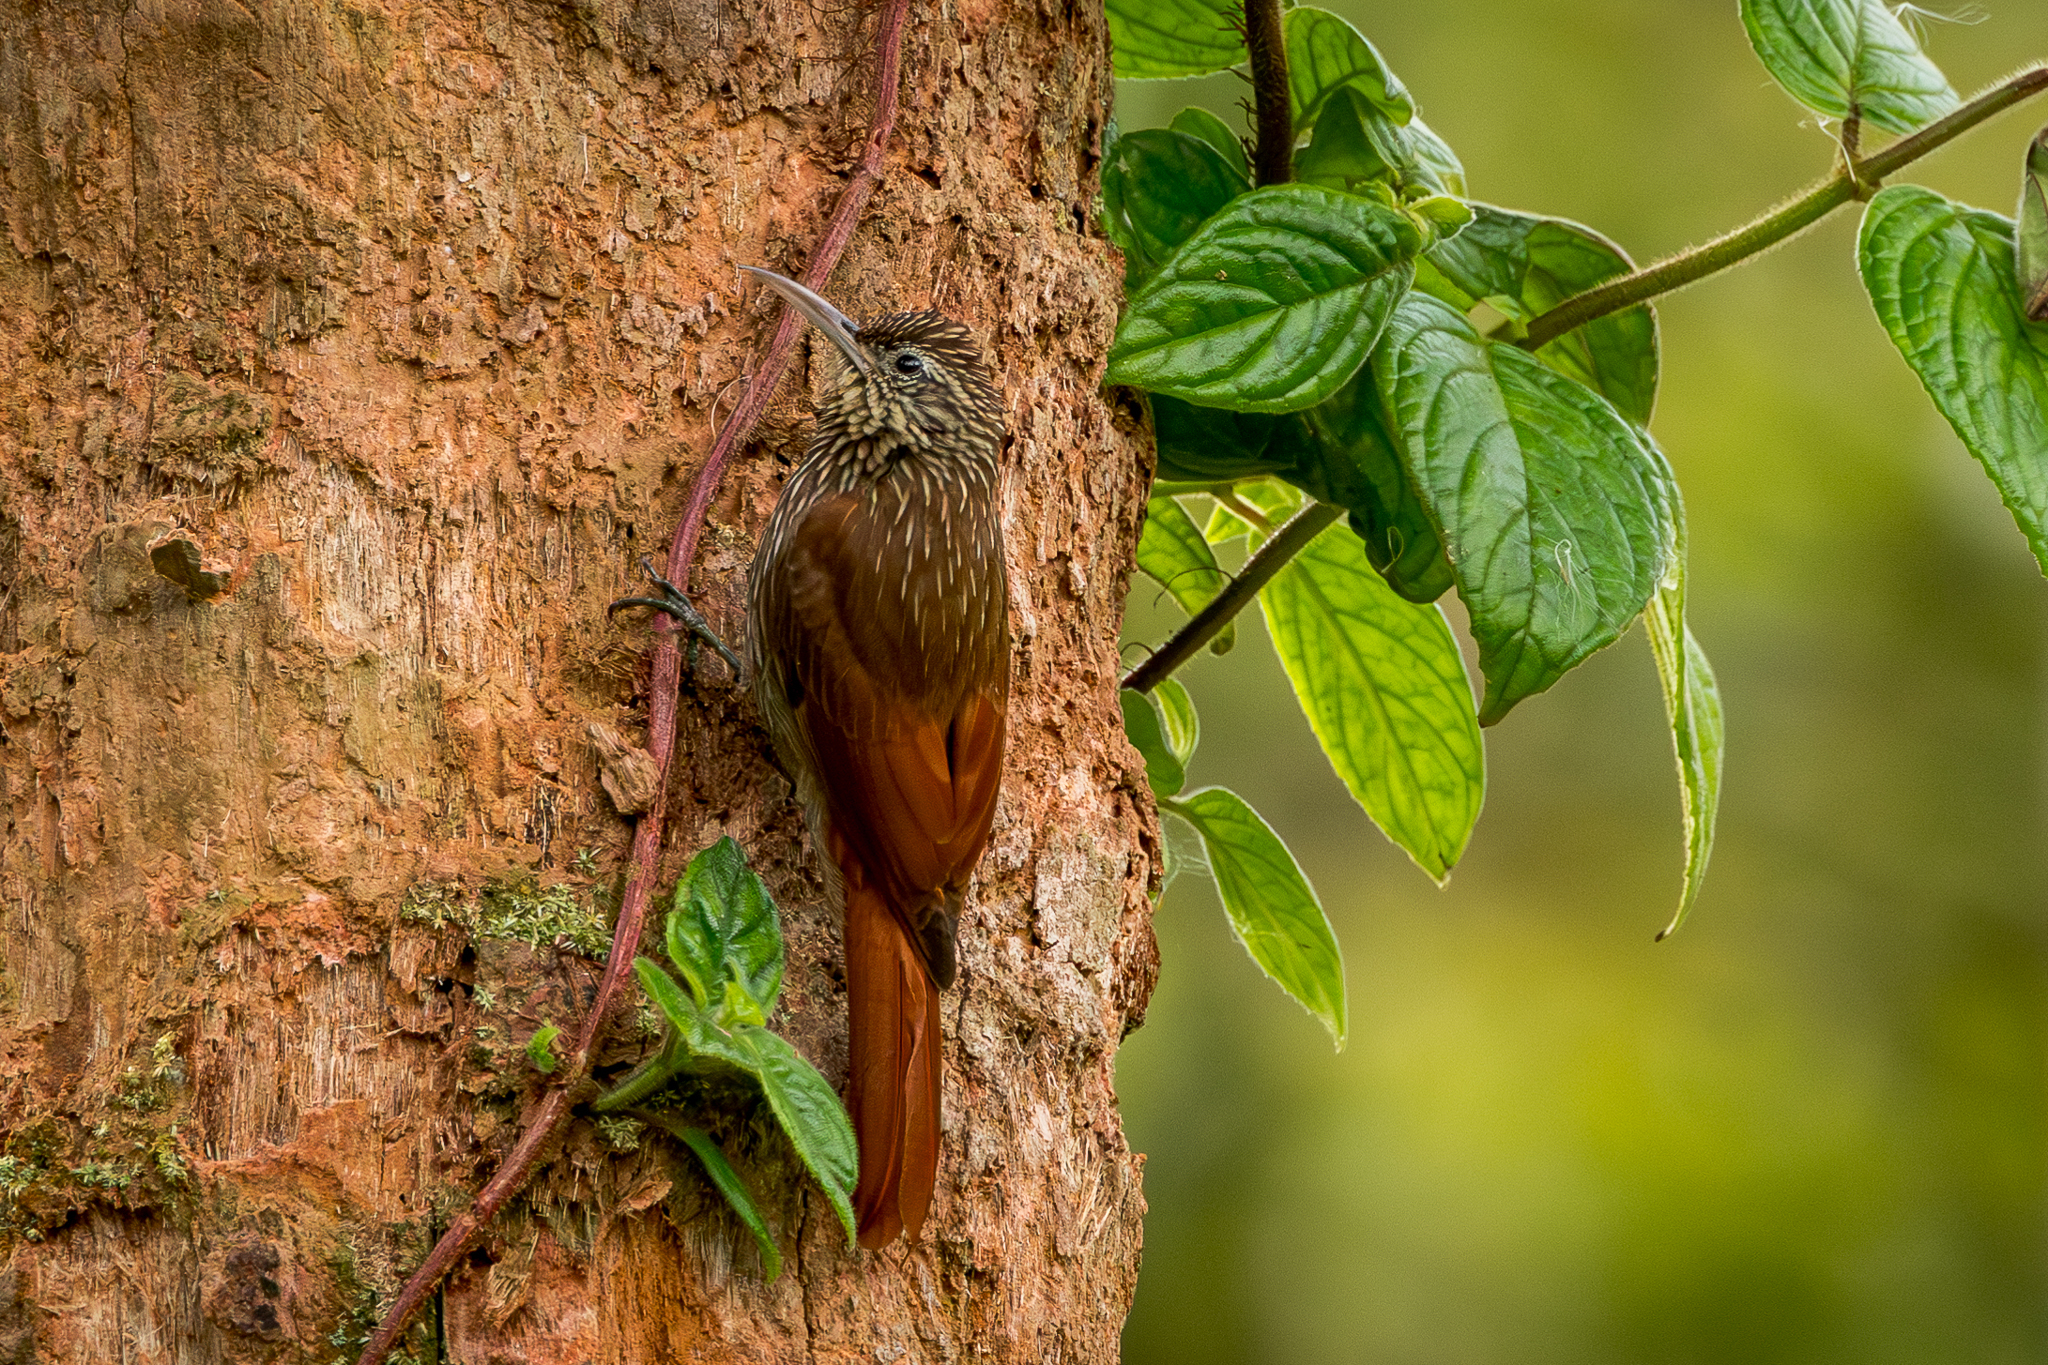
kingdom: Animalia
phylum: Chordata
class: Aves
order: Passeriformes
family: Furnariidae
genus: Lepidocolaptes
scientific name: Lepidocolaptes souleyetii
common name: Streak-headed woodcreeper
